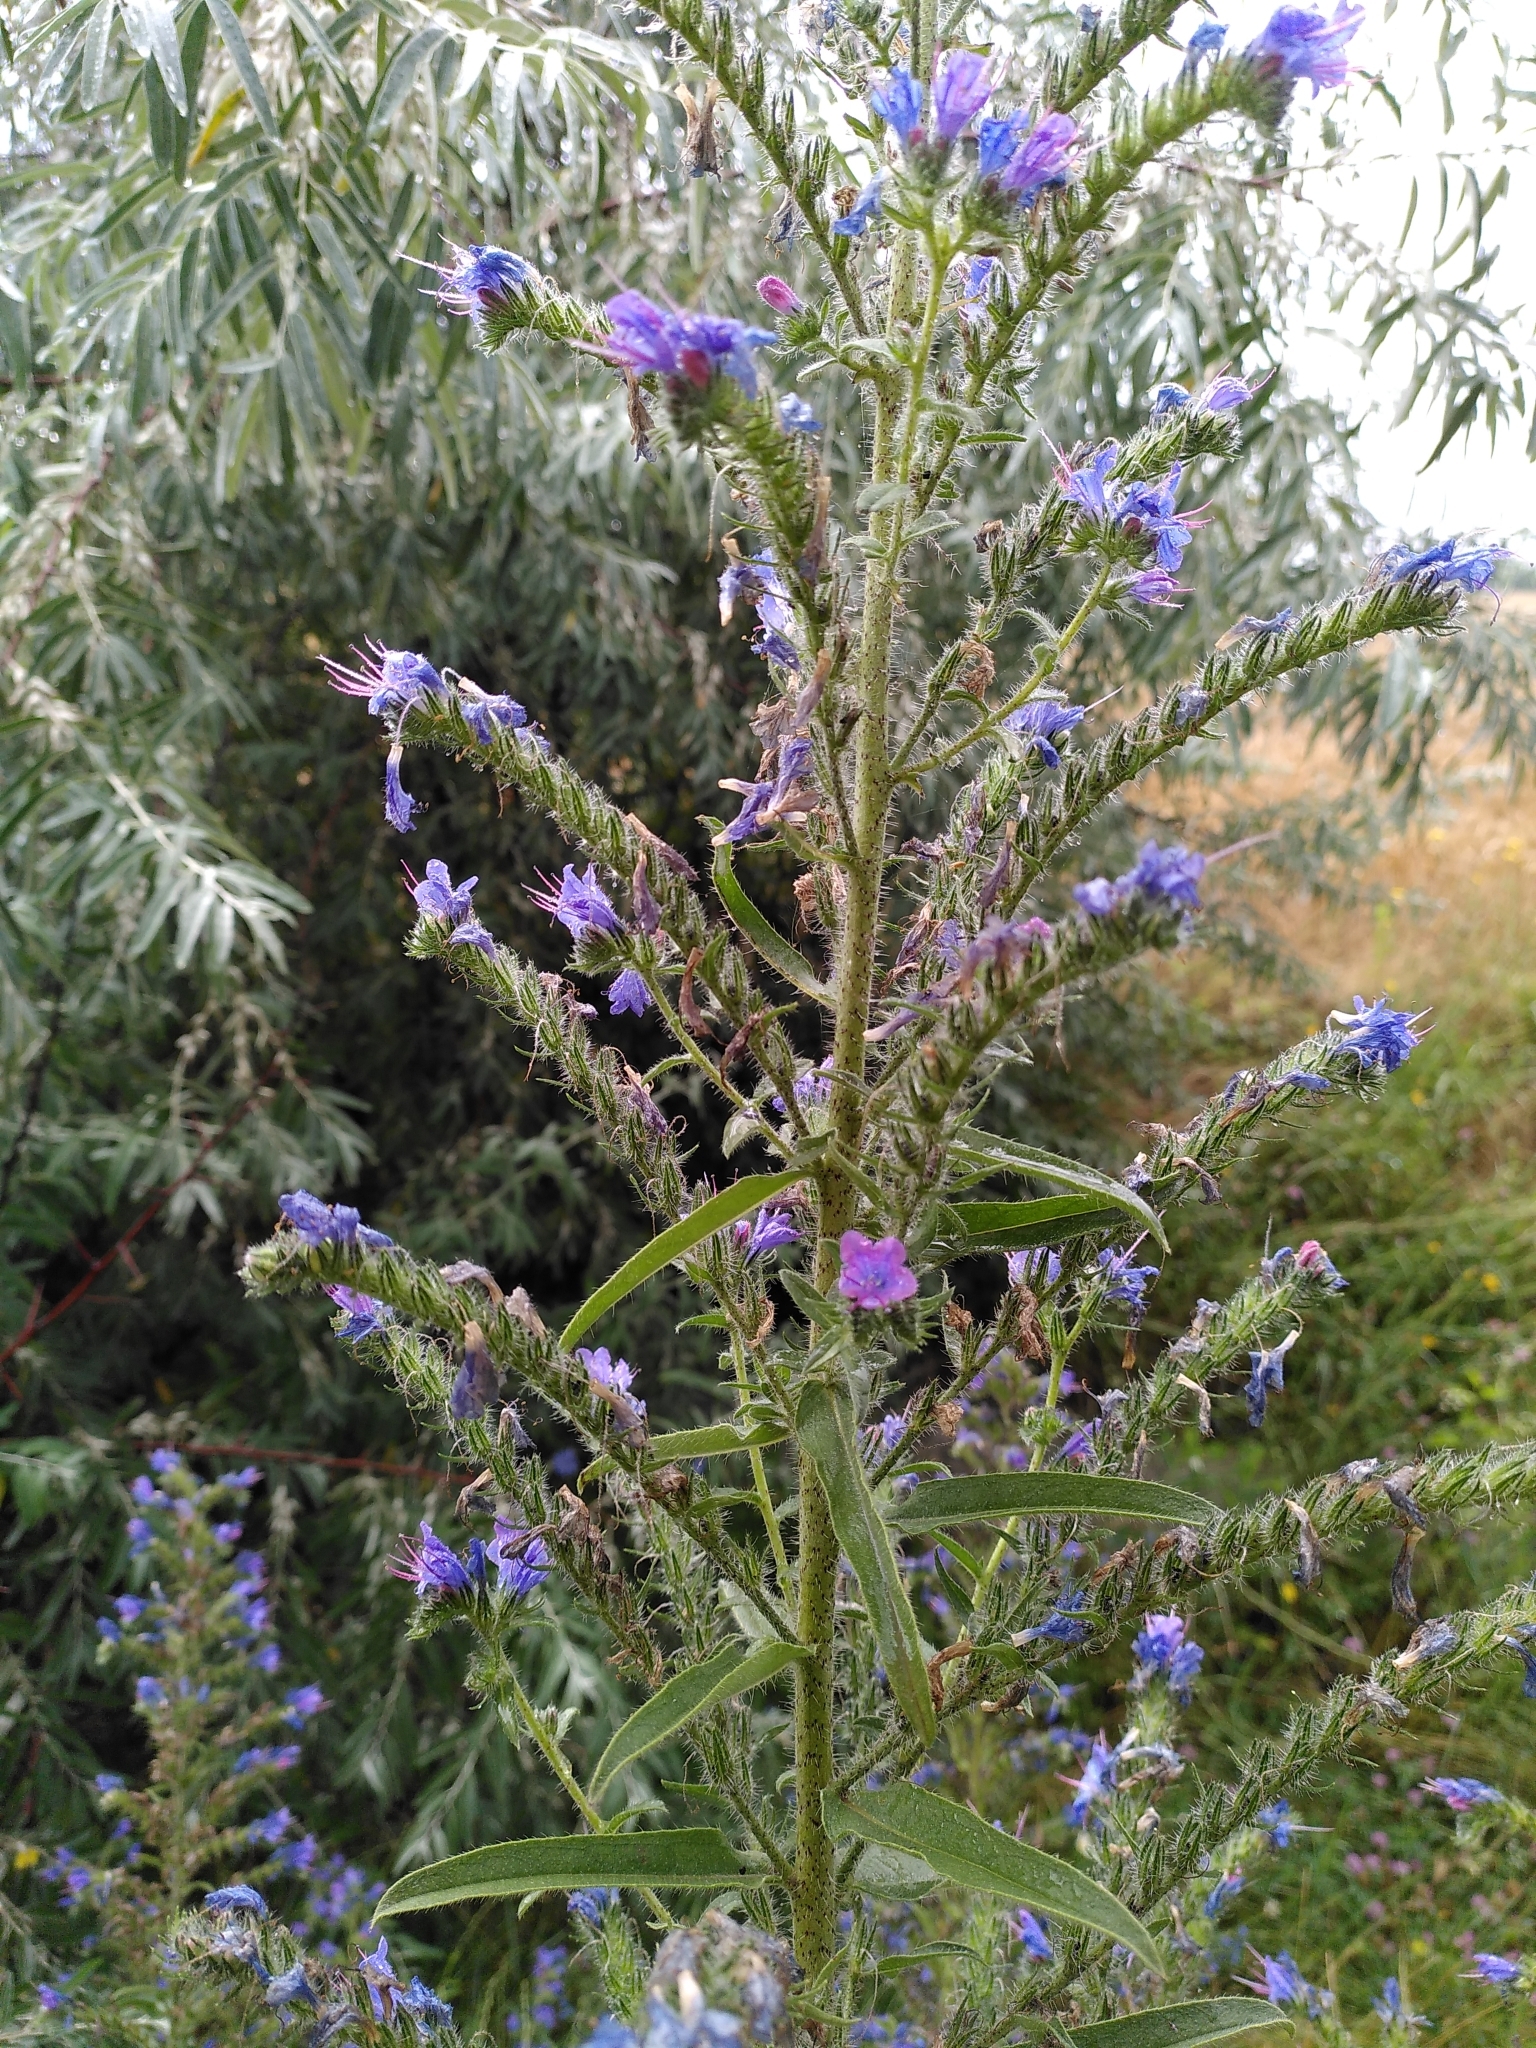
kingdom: Plantae
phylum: Tracheophyta
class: Magnoliopsida
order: Boraginales
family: Boraginaceae
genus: Echium
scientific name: Echium vulgare
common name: Common viper's bugloss
